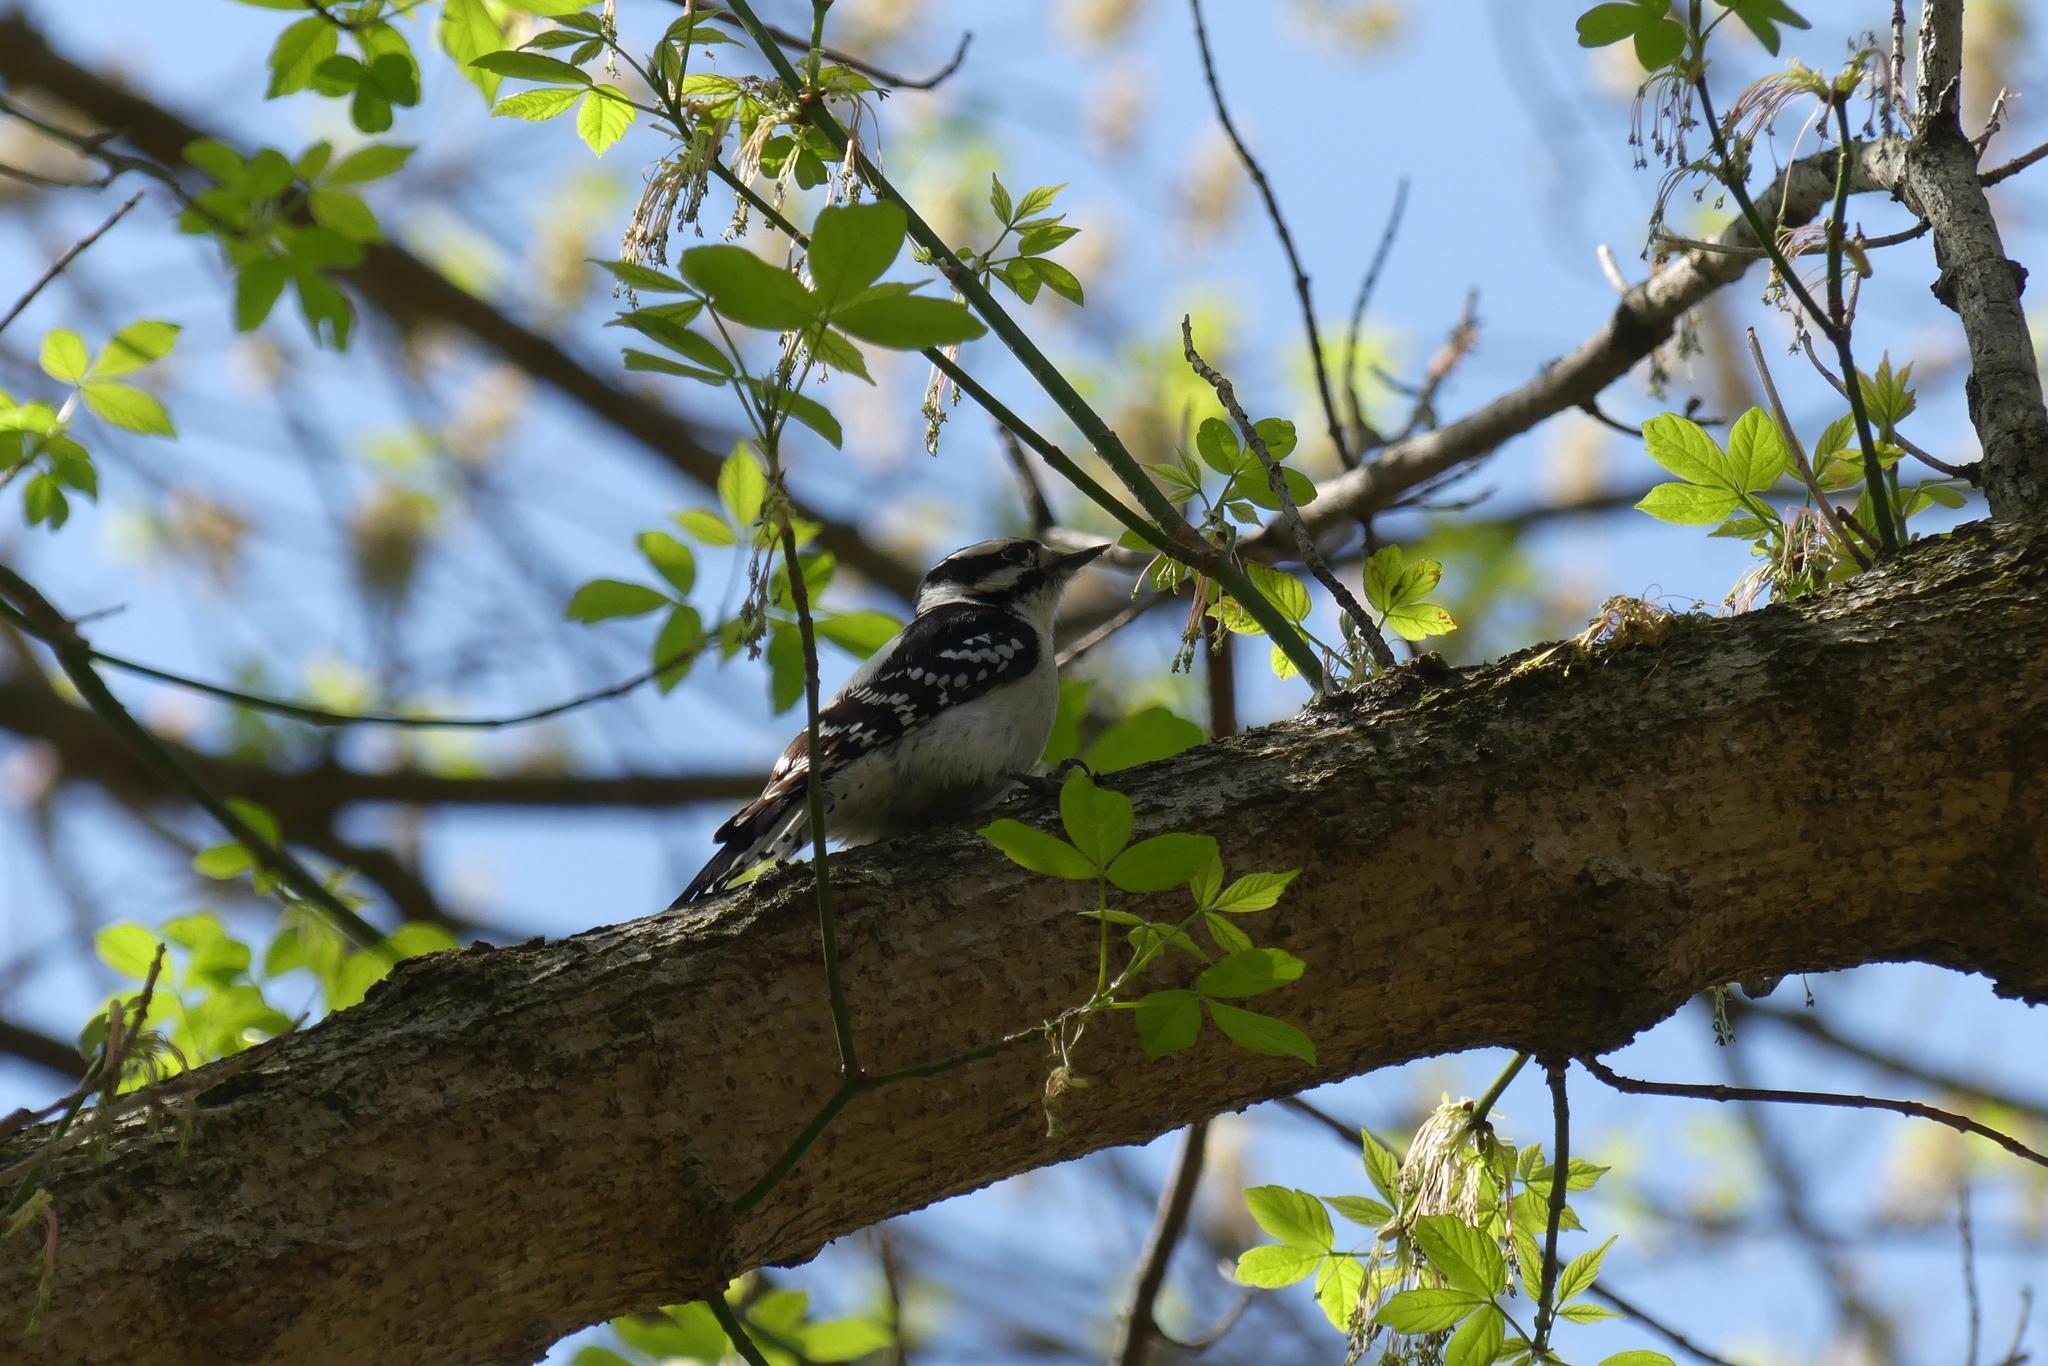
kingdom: Animalia
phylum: Chordata
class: Aves
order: Piciformes
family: Picidae
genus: Dryobates
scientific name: Dryobates pubescens
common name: Downy woodpecker
